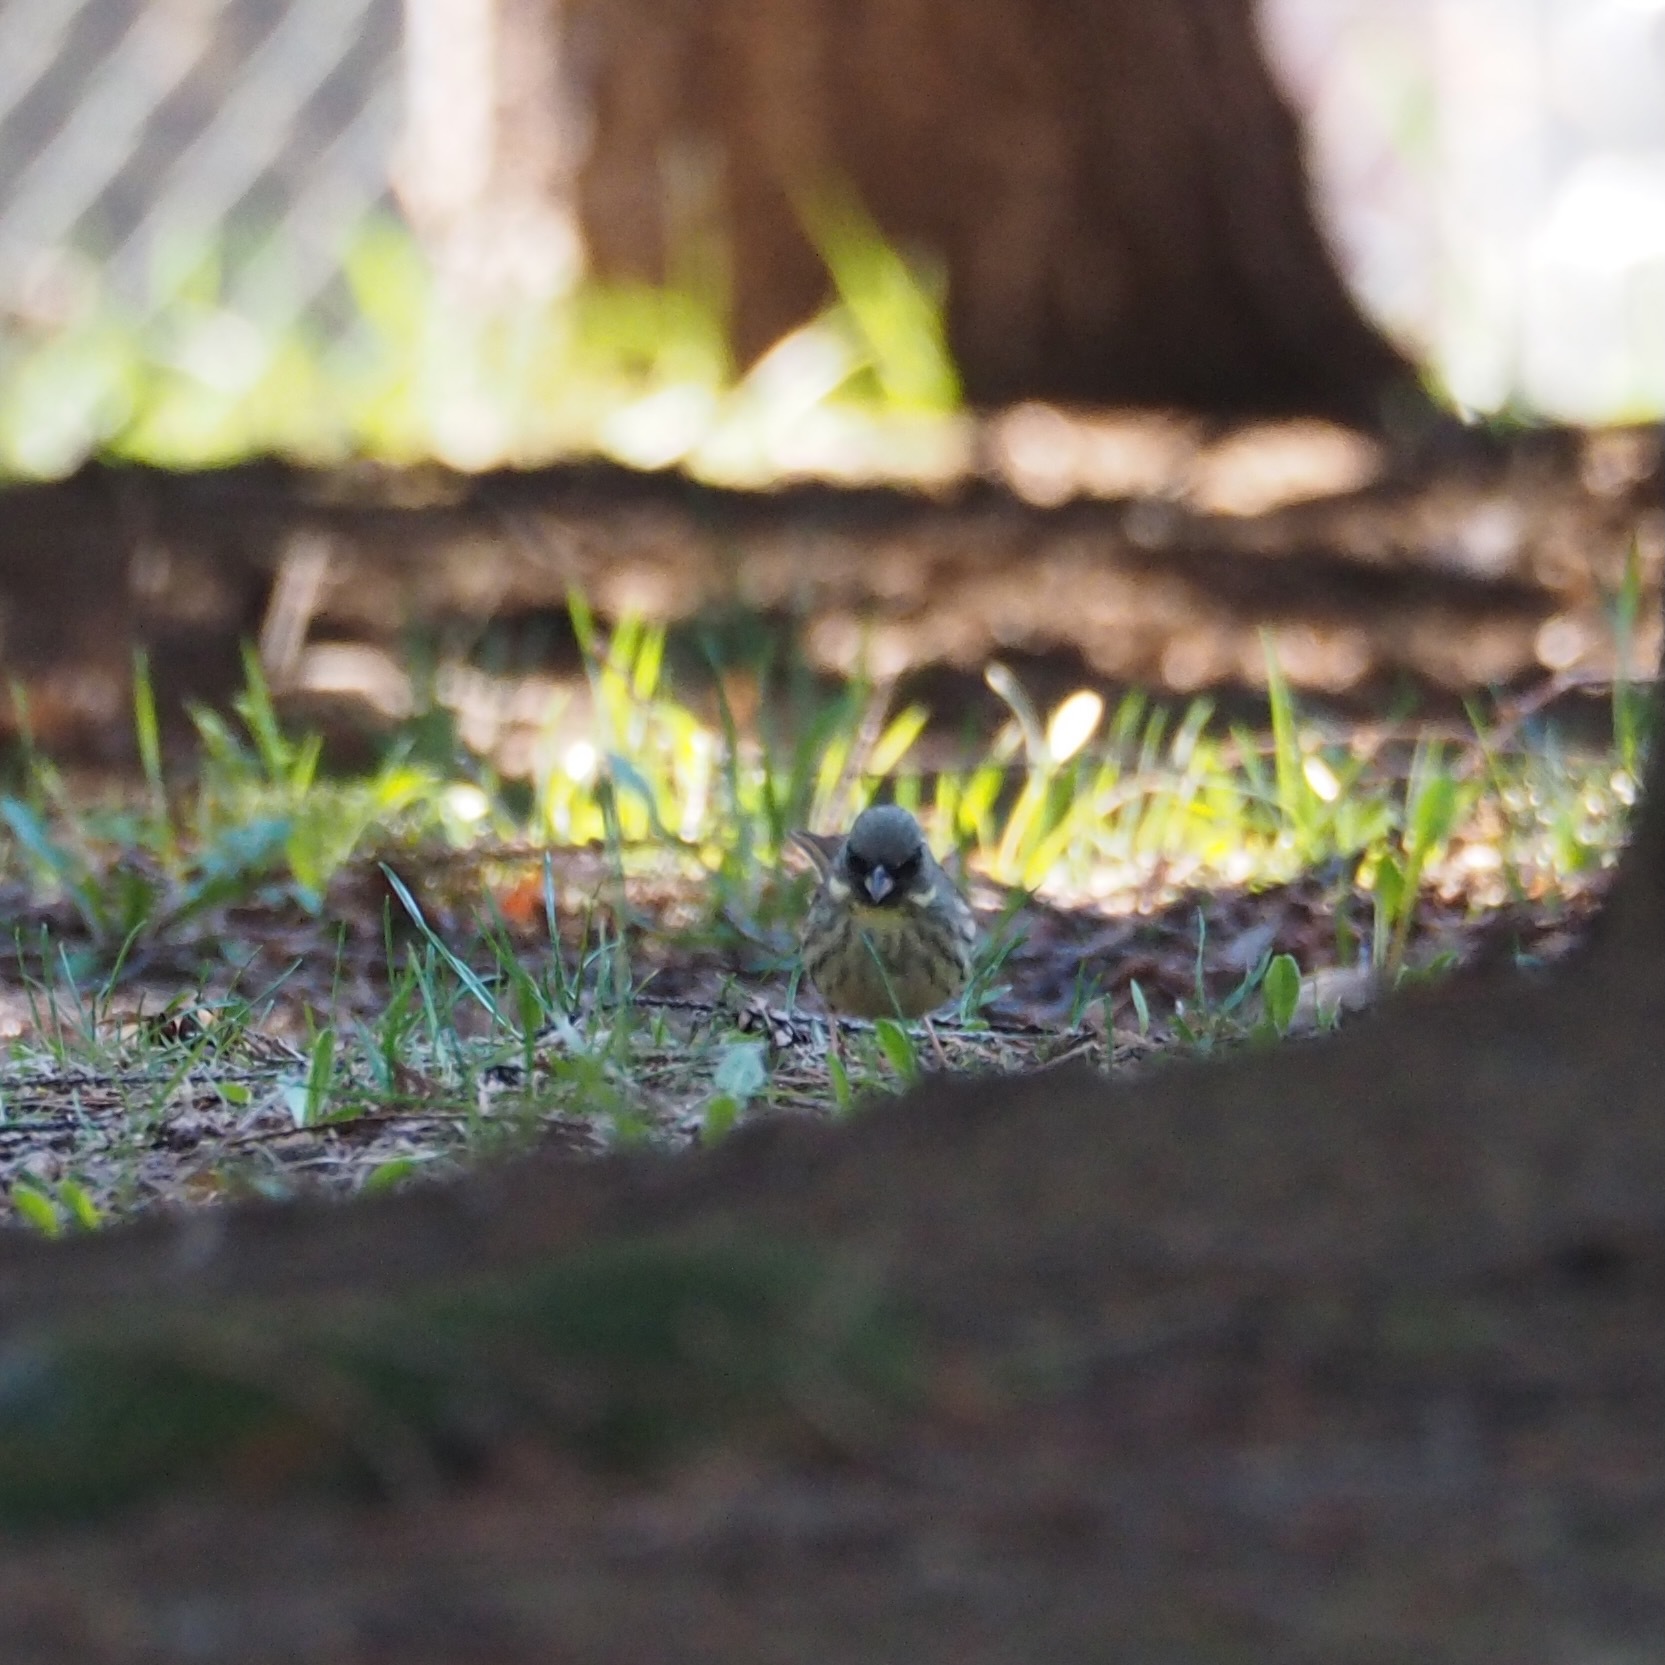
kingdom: Animalia
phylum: Chordata
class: Aves
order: Passeriformes
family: Emberizidae
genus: Emberiza
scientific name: Emberiza personata
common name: Masked bunting
